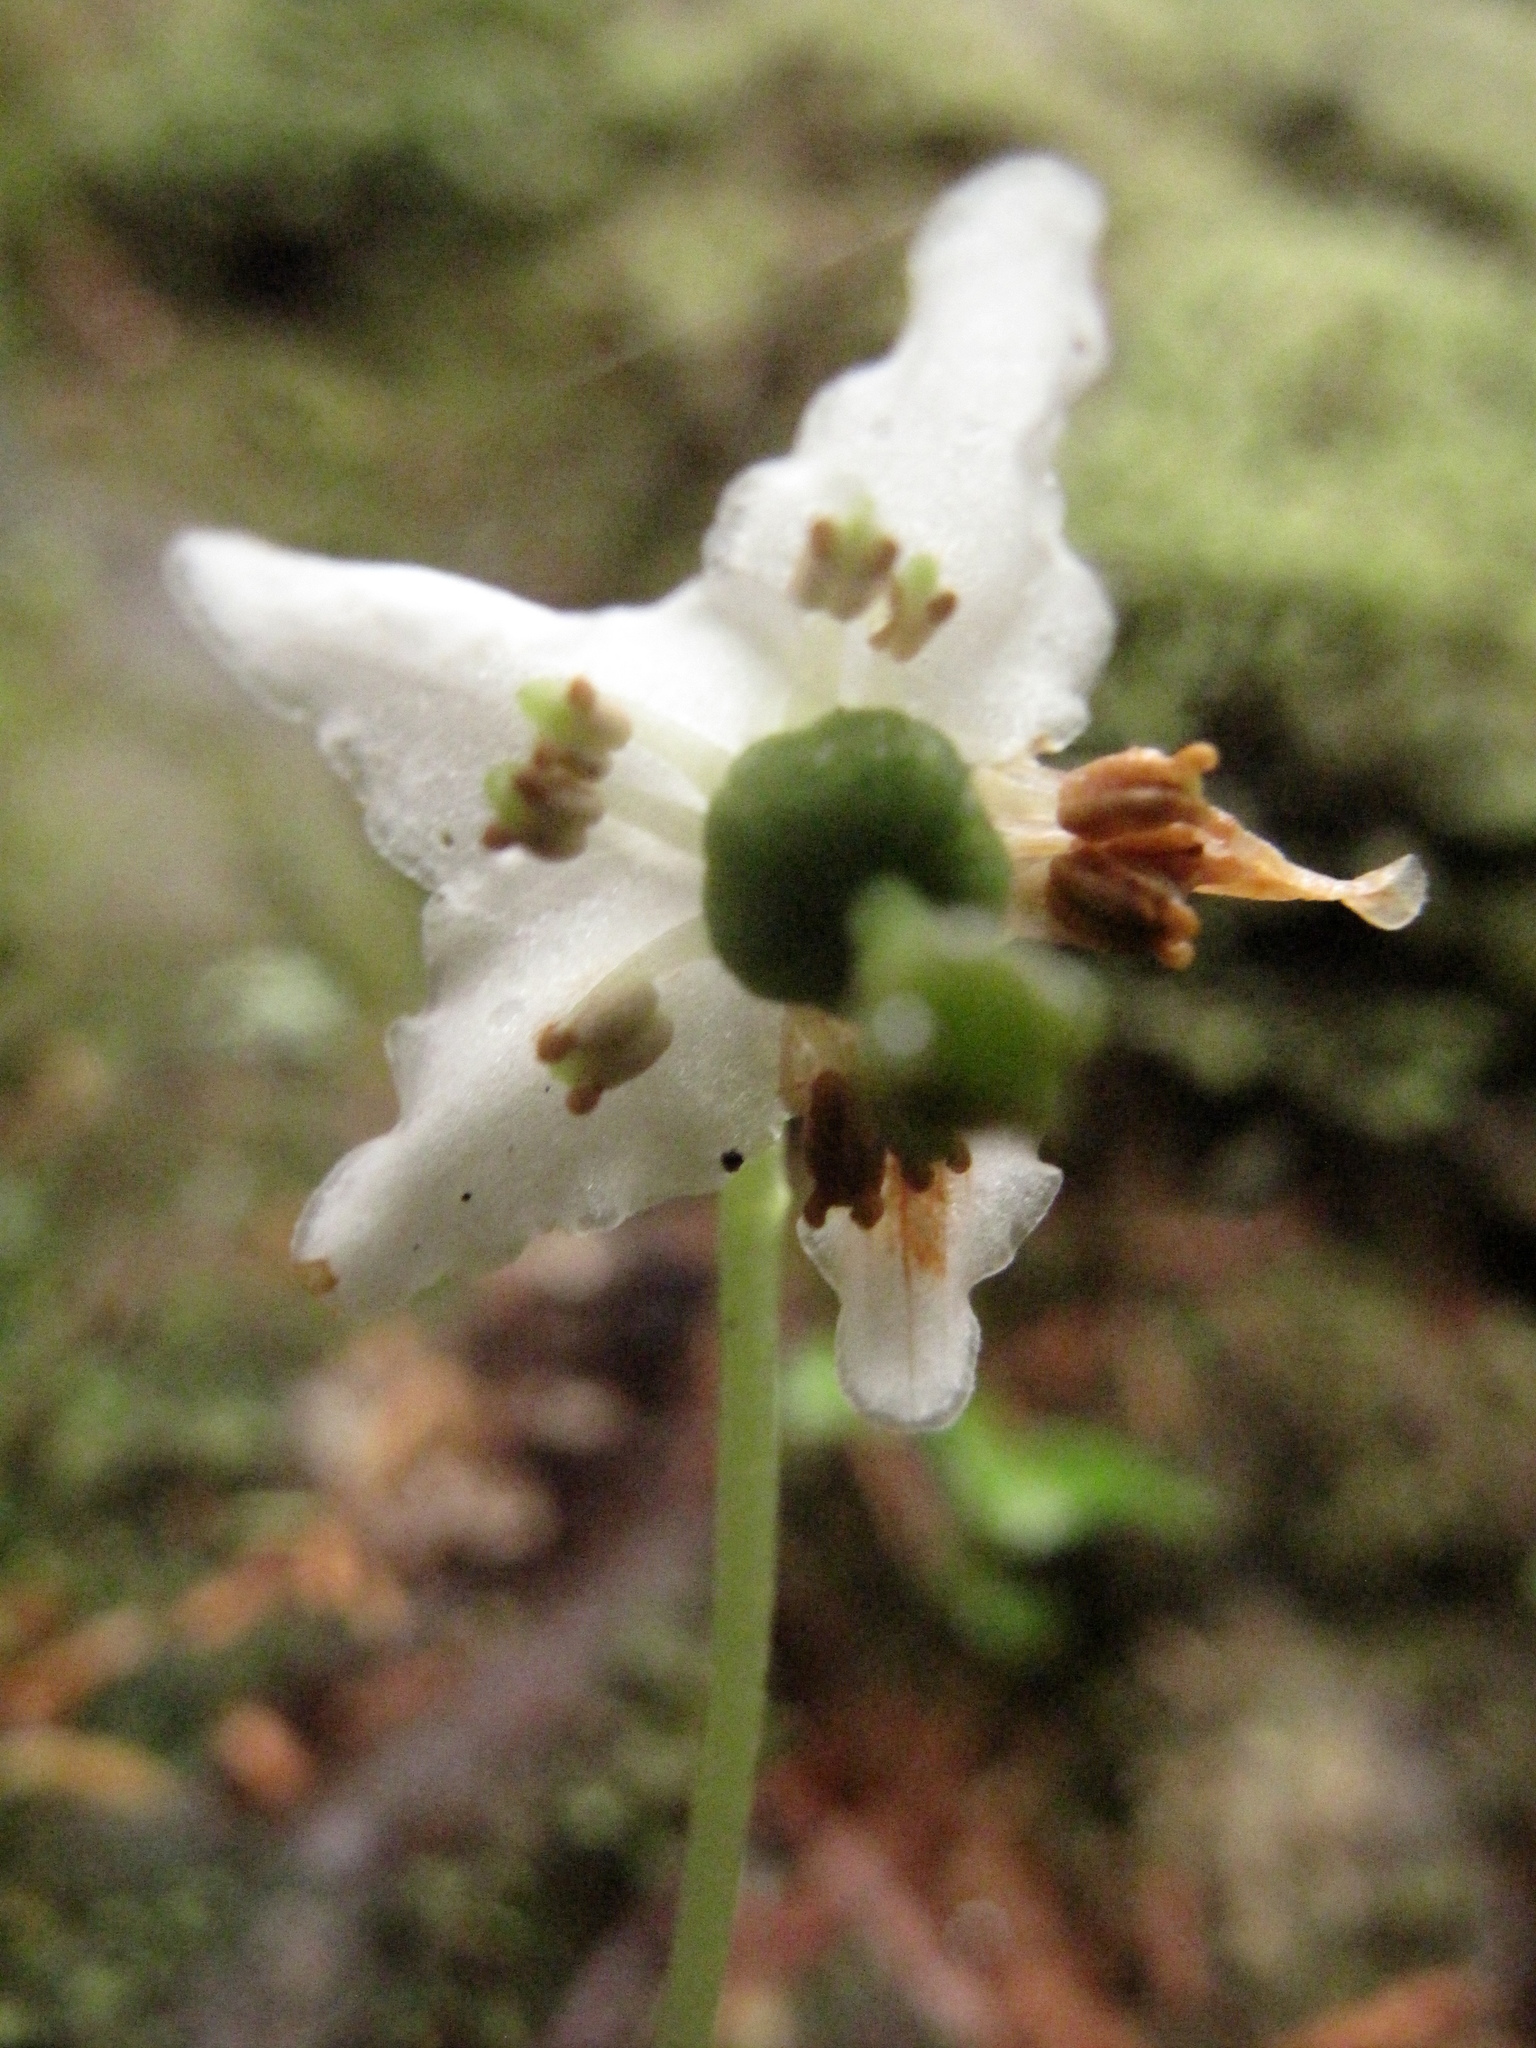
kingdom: Plantae
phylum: Tracheophyta
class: Magnoliopsida
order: Ericales
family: Ericaceae
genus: Moneses
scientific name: Moneses uniflora
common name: One-flowered wintergreen
